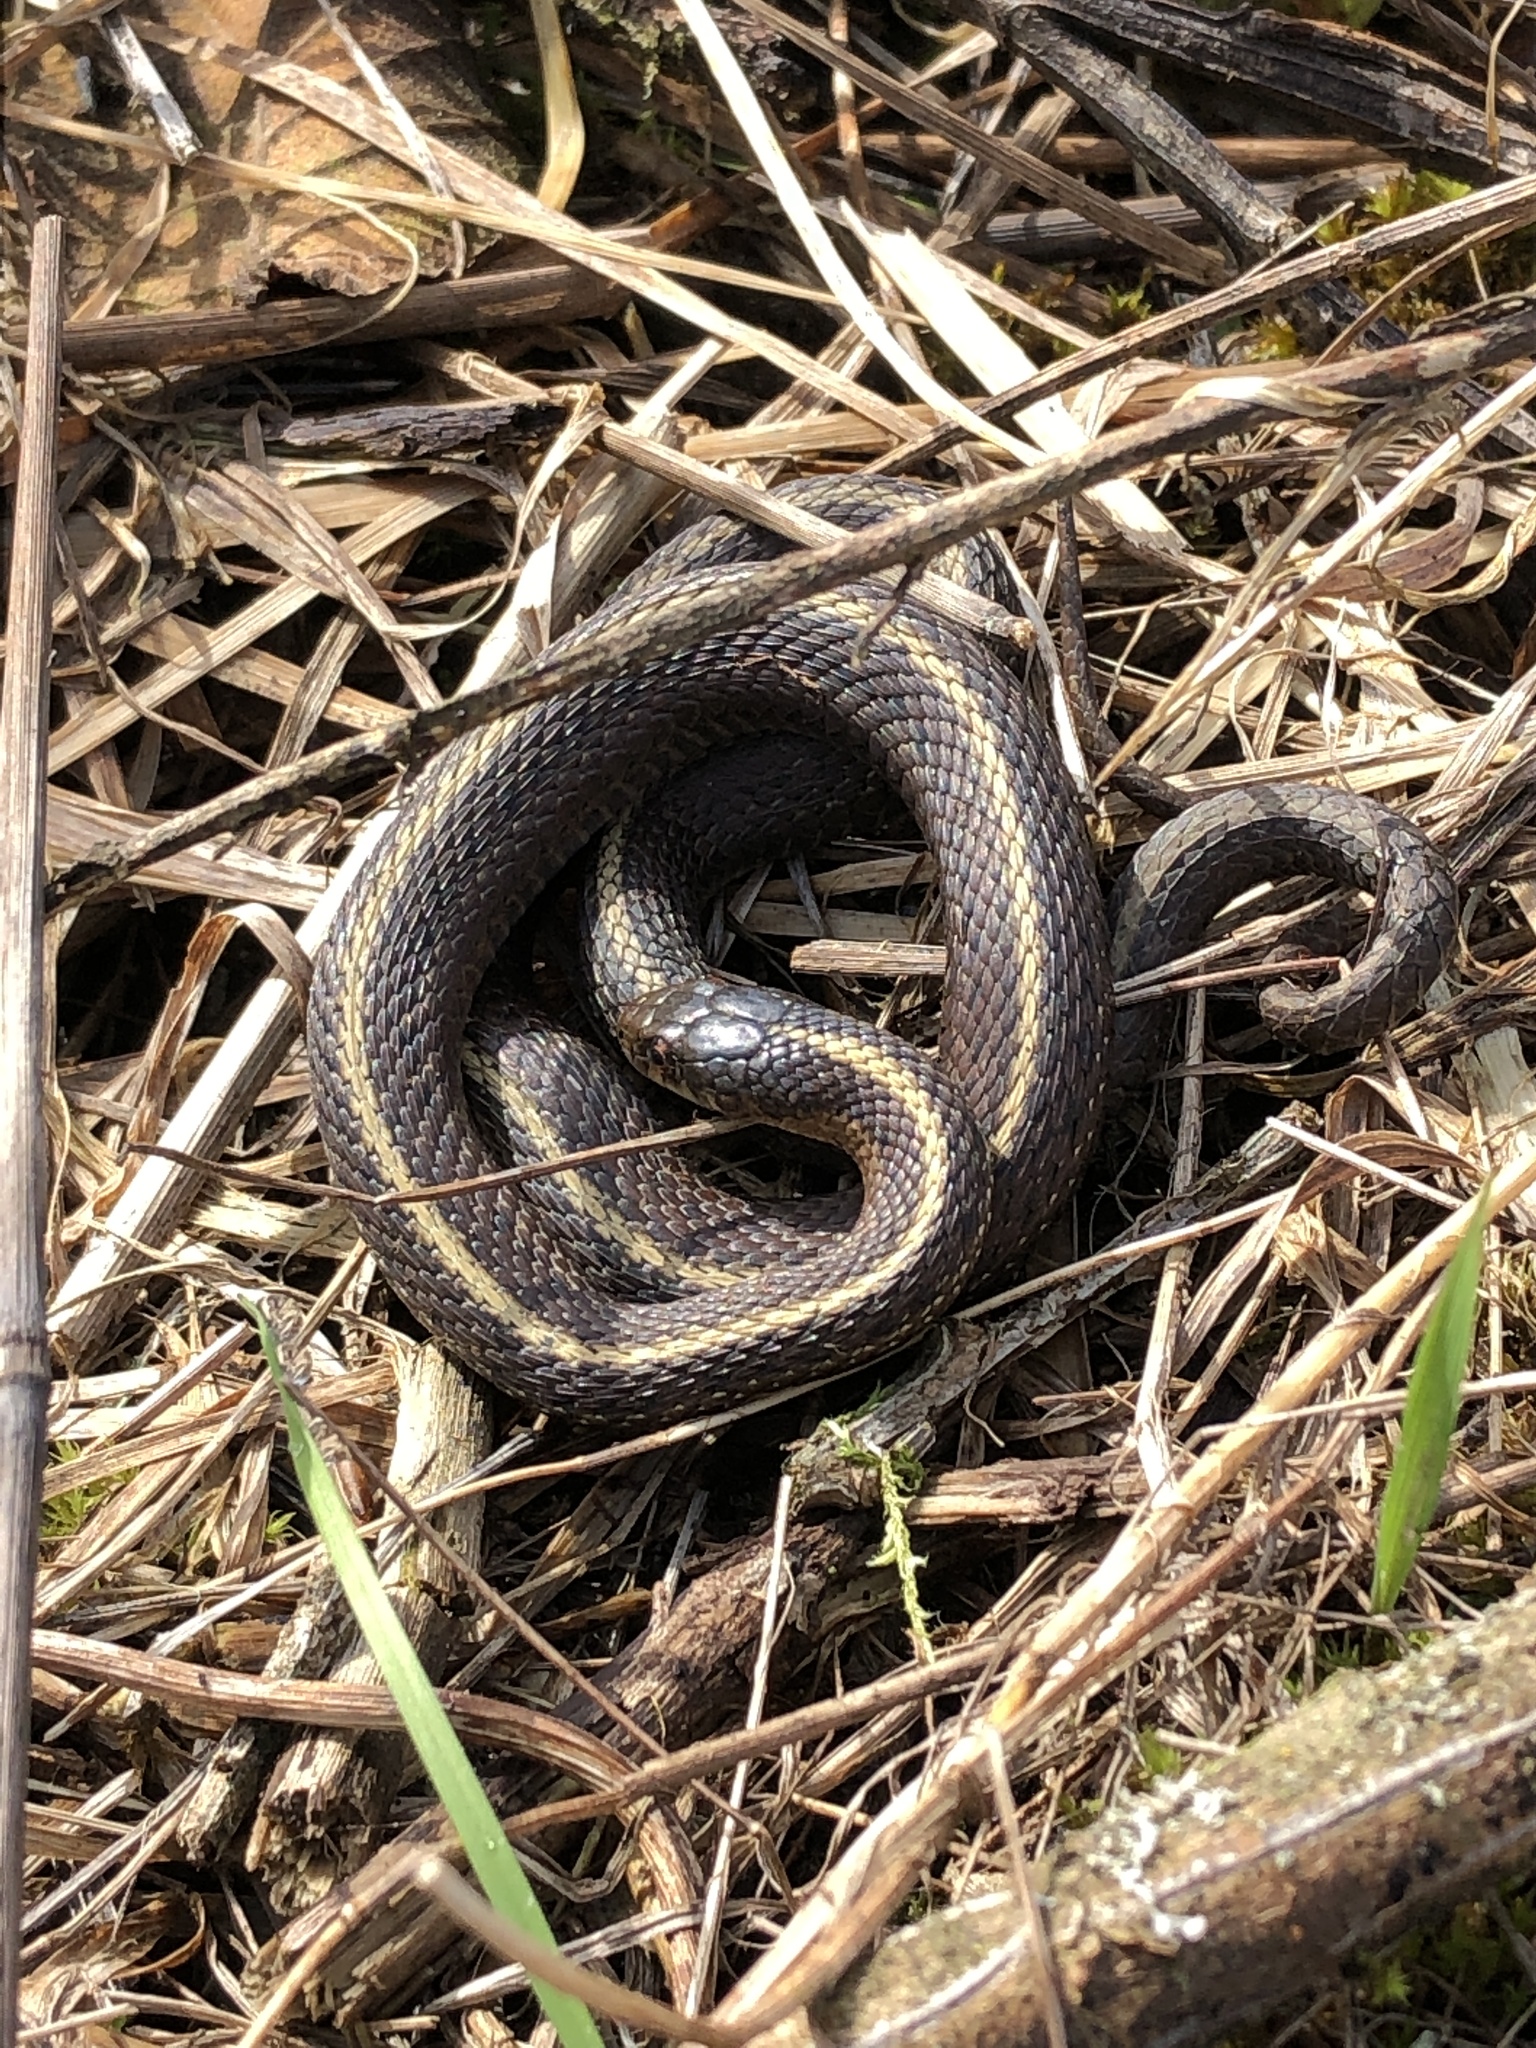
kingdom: Animalia
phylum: Chordata
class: Squamata
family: Colubridae
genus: Thamnophis
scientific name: Thamnophis ordinoides
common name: Northwestern garter snake
